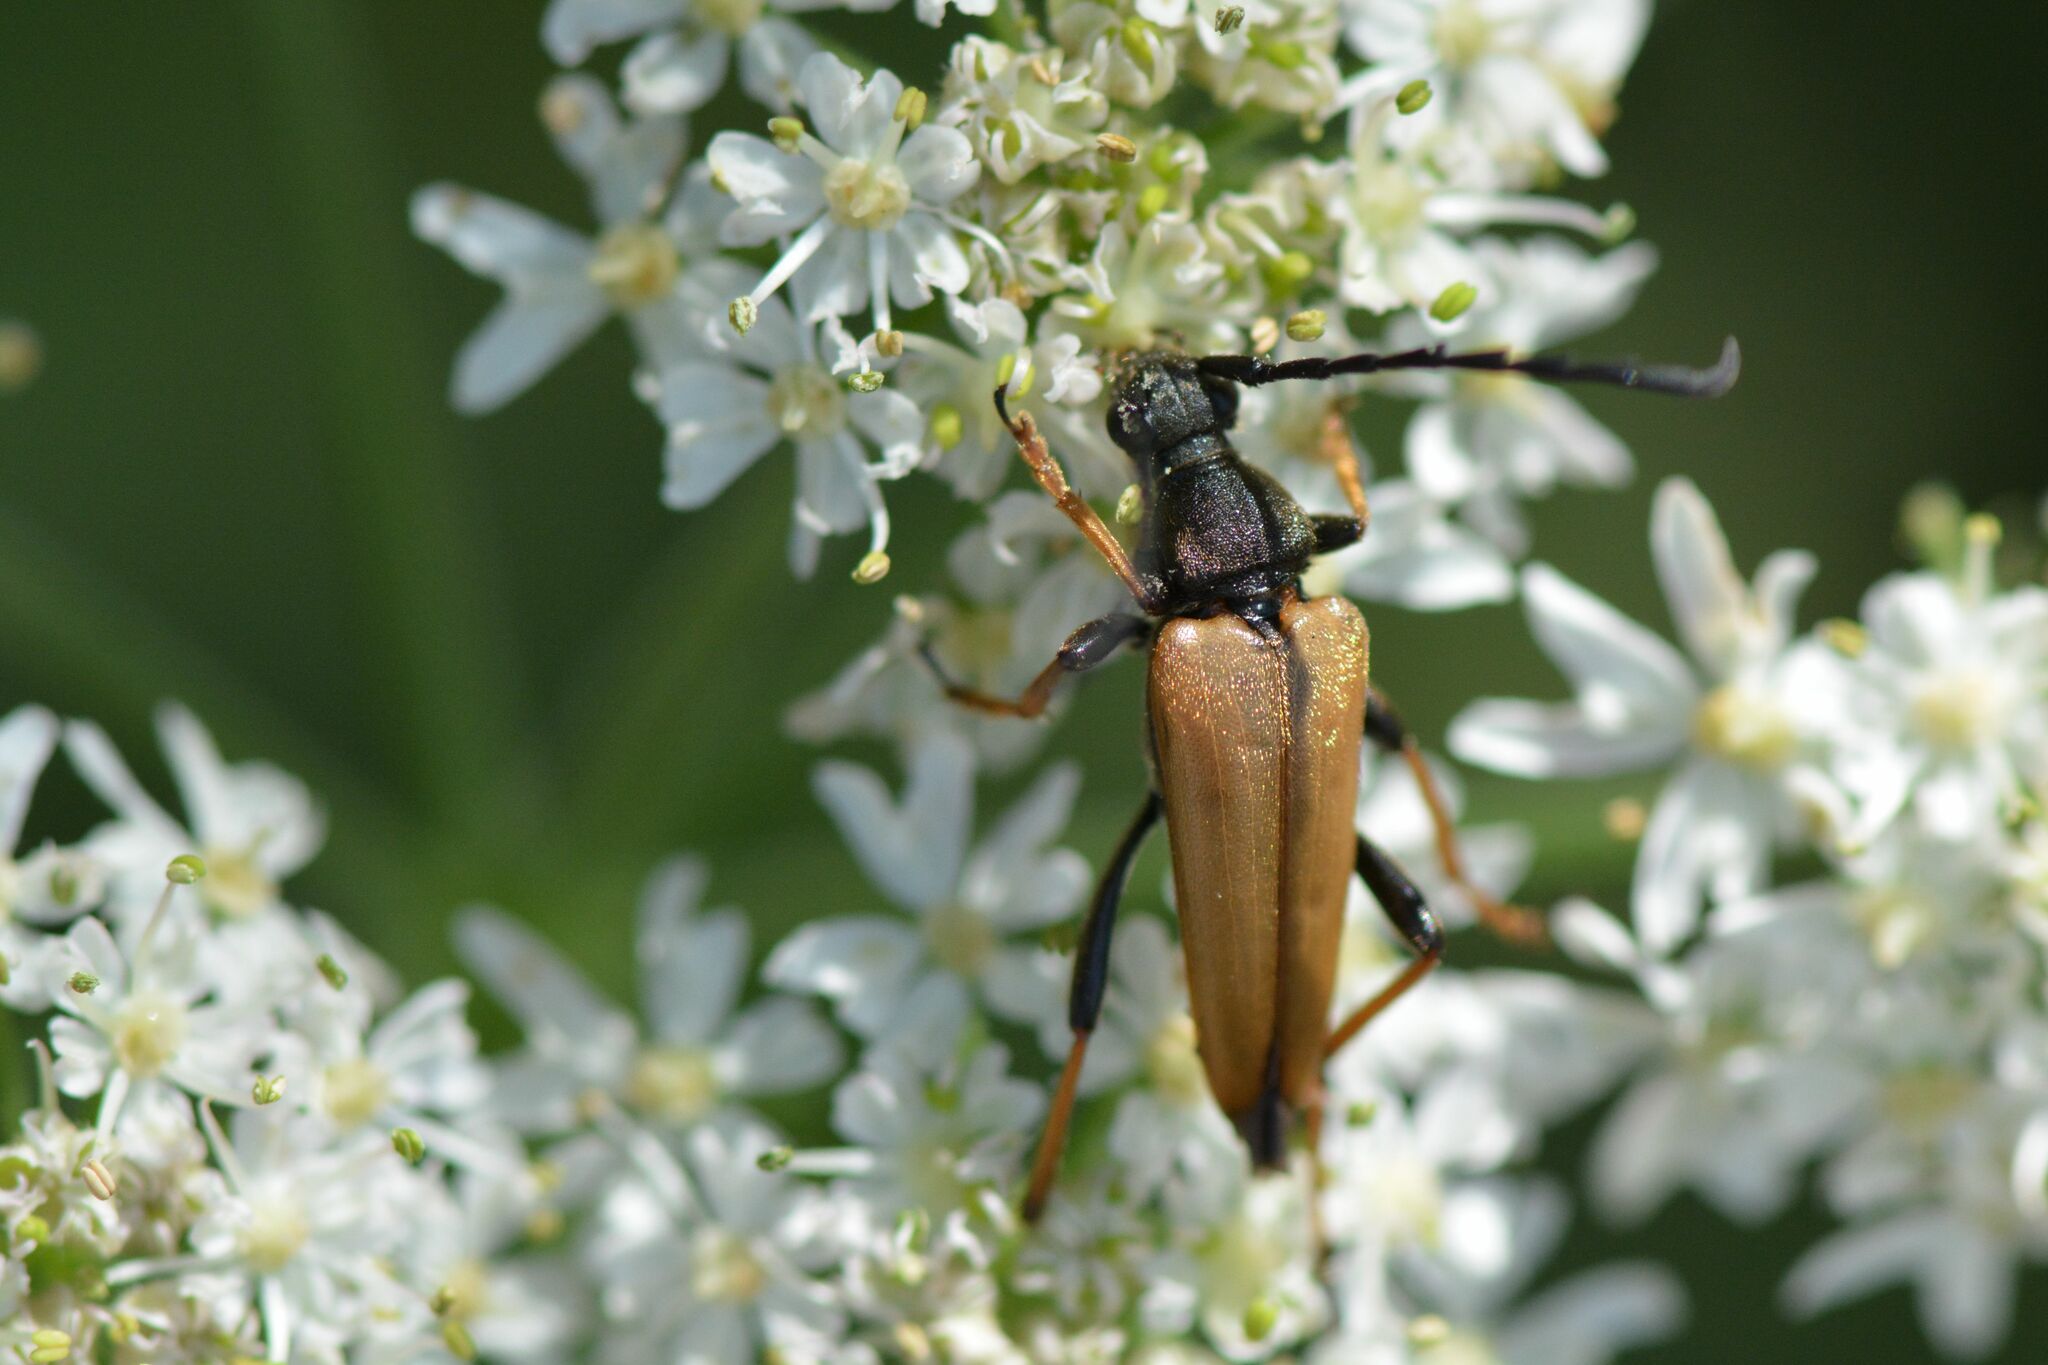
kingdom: Animalia
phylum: Arthropoda
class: Insecta
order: Coleoptera
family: Cerambycidae
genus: Stictoleptura
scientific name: Stictoleptura rubra
